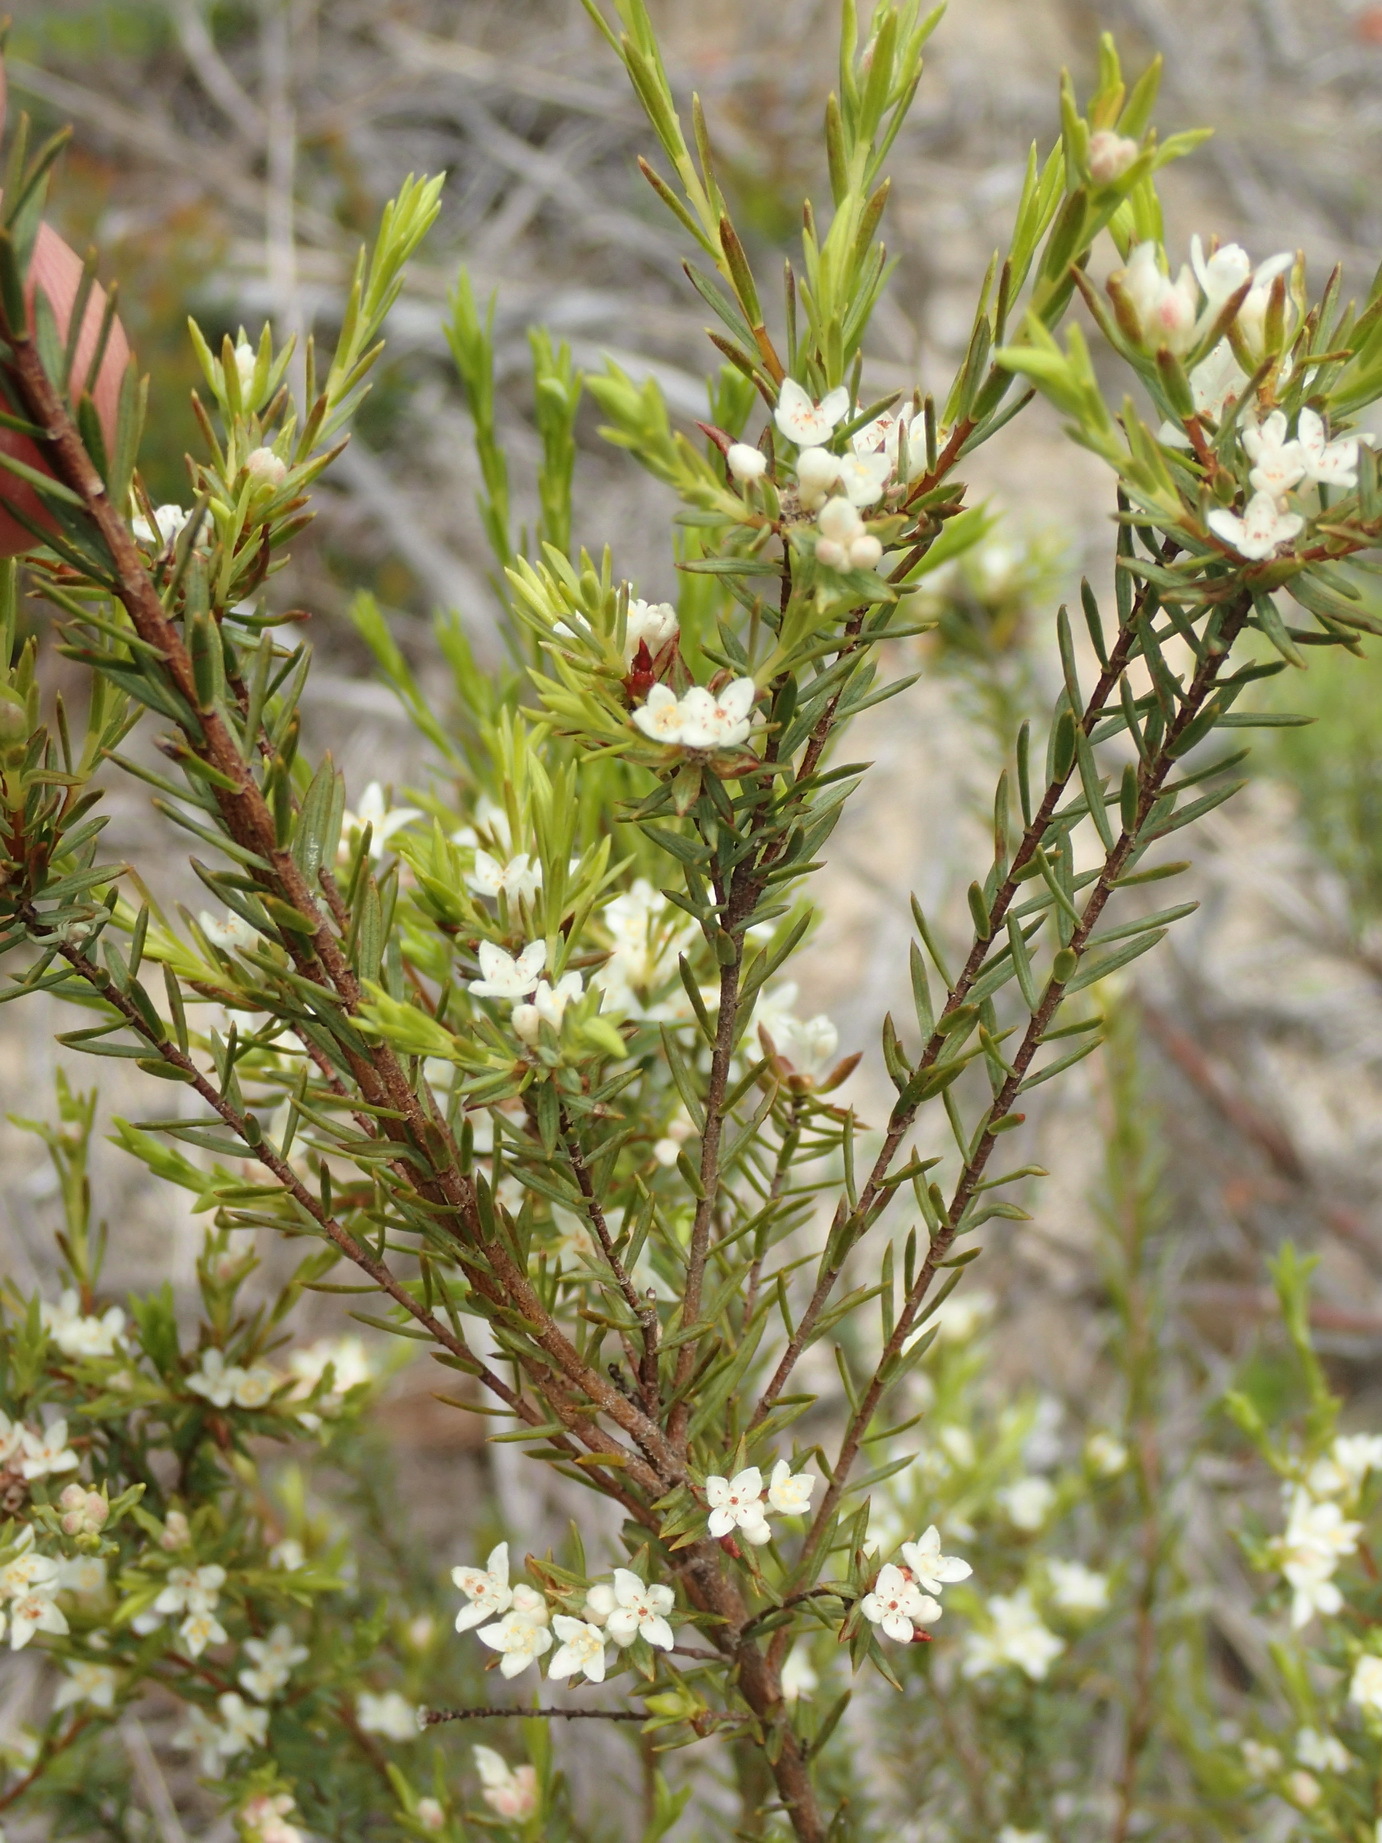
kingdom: Plantae
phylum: Tracheophyta
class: Magnoliopsida
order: Malvales
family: Thymelaeaceae
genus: Lachnaea
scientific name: Lachnaea diosmoides
